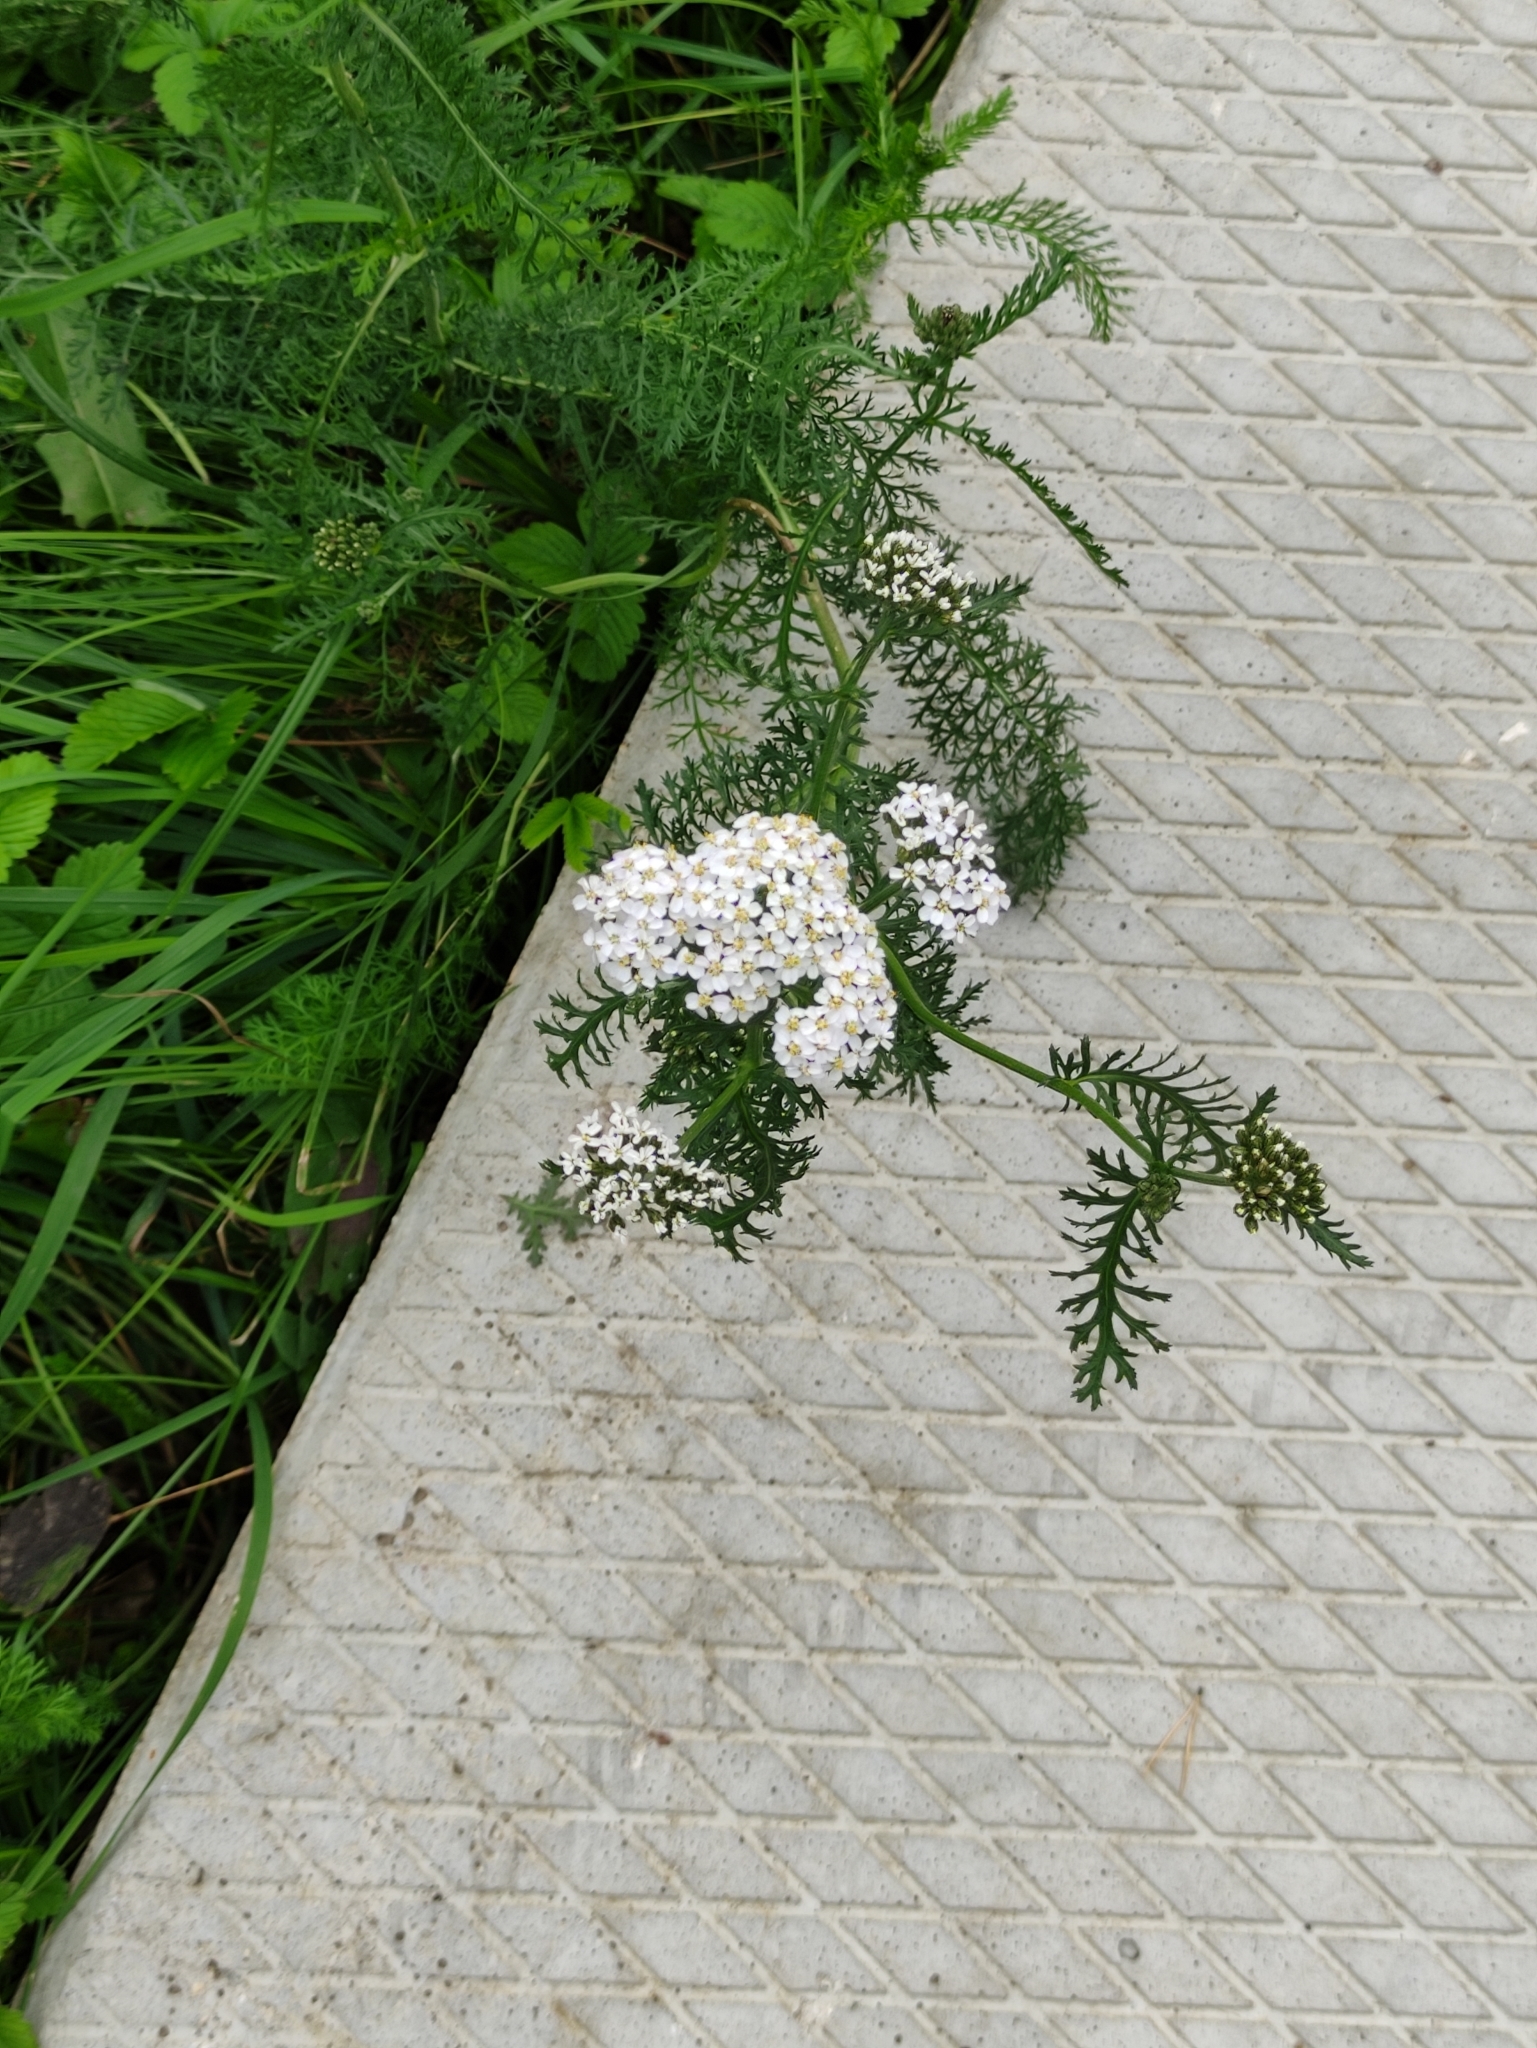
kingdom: Plantae
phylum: Tracheophyta
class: Magnoliopsida
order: Asterales
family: Asteraceae
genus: Achillea
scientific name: Achillea millefolium
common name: Yarrow
